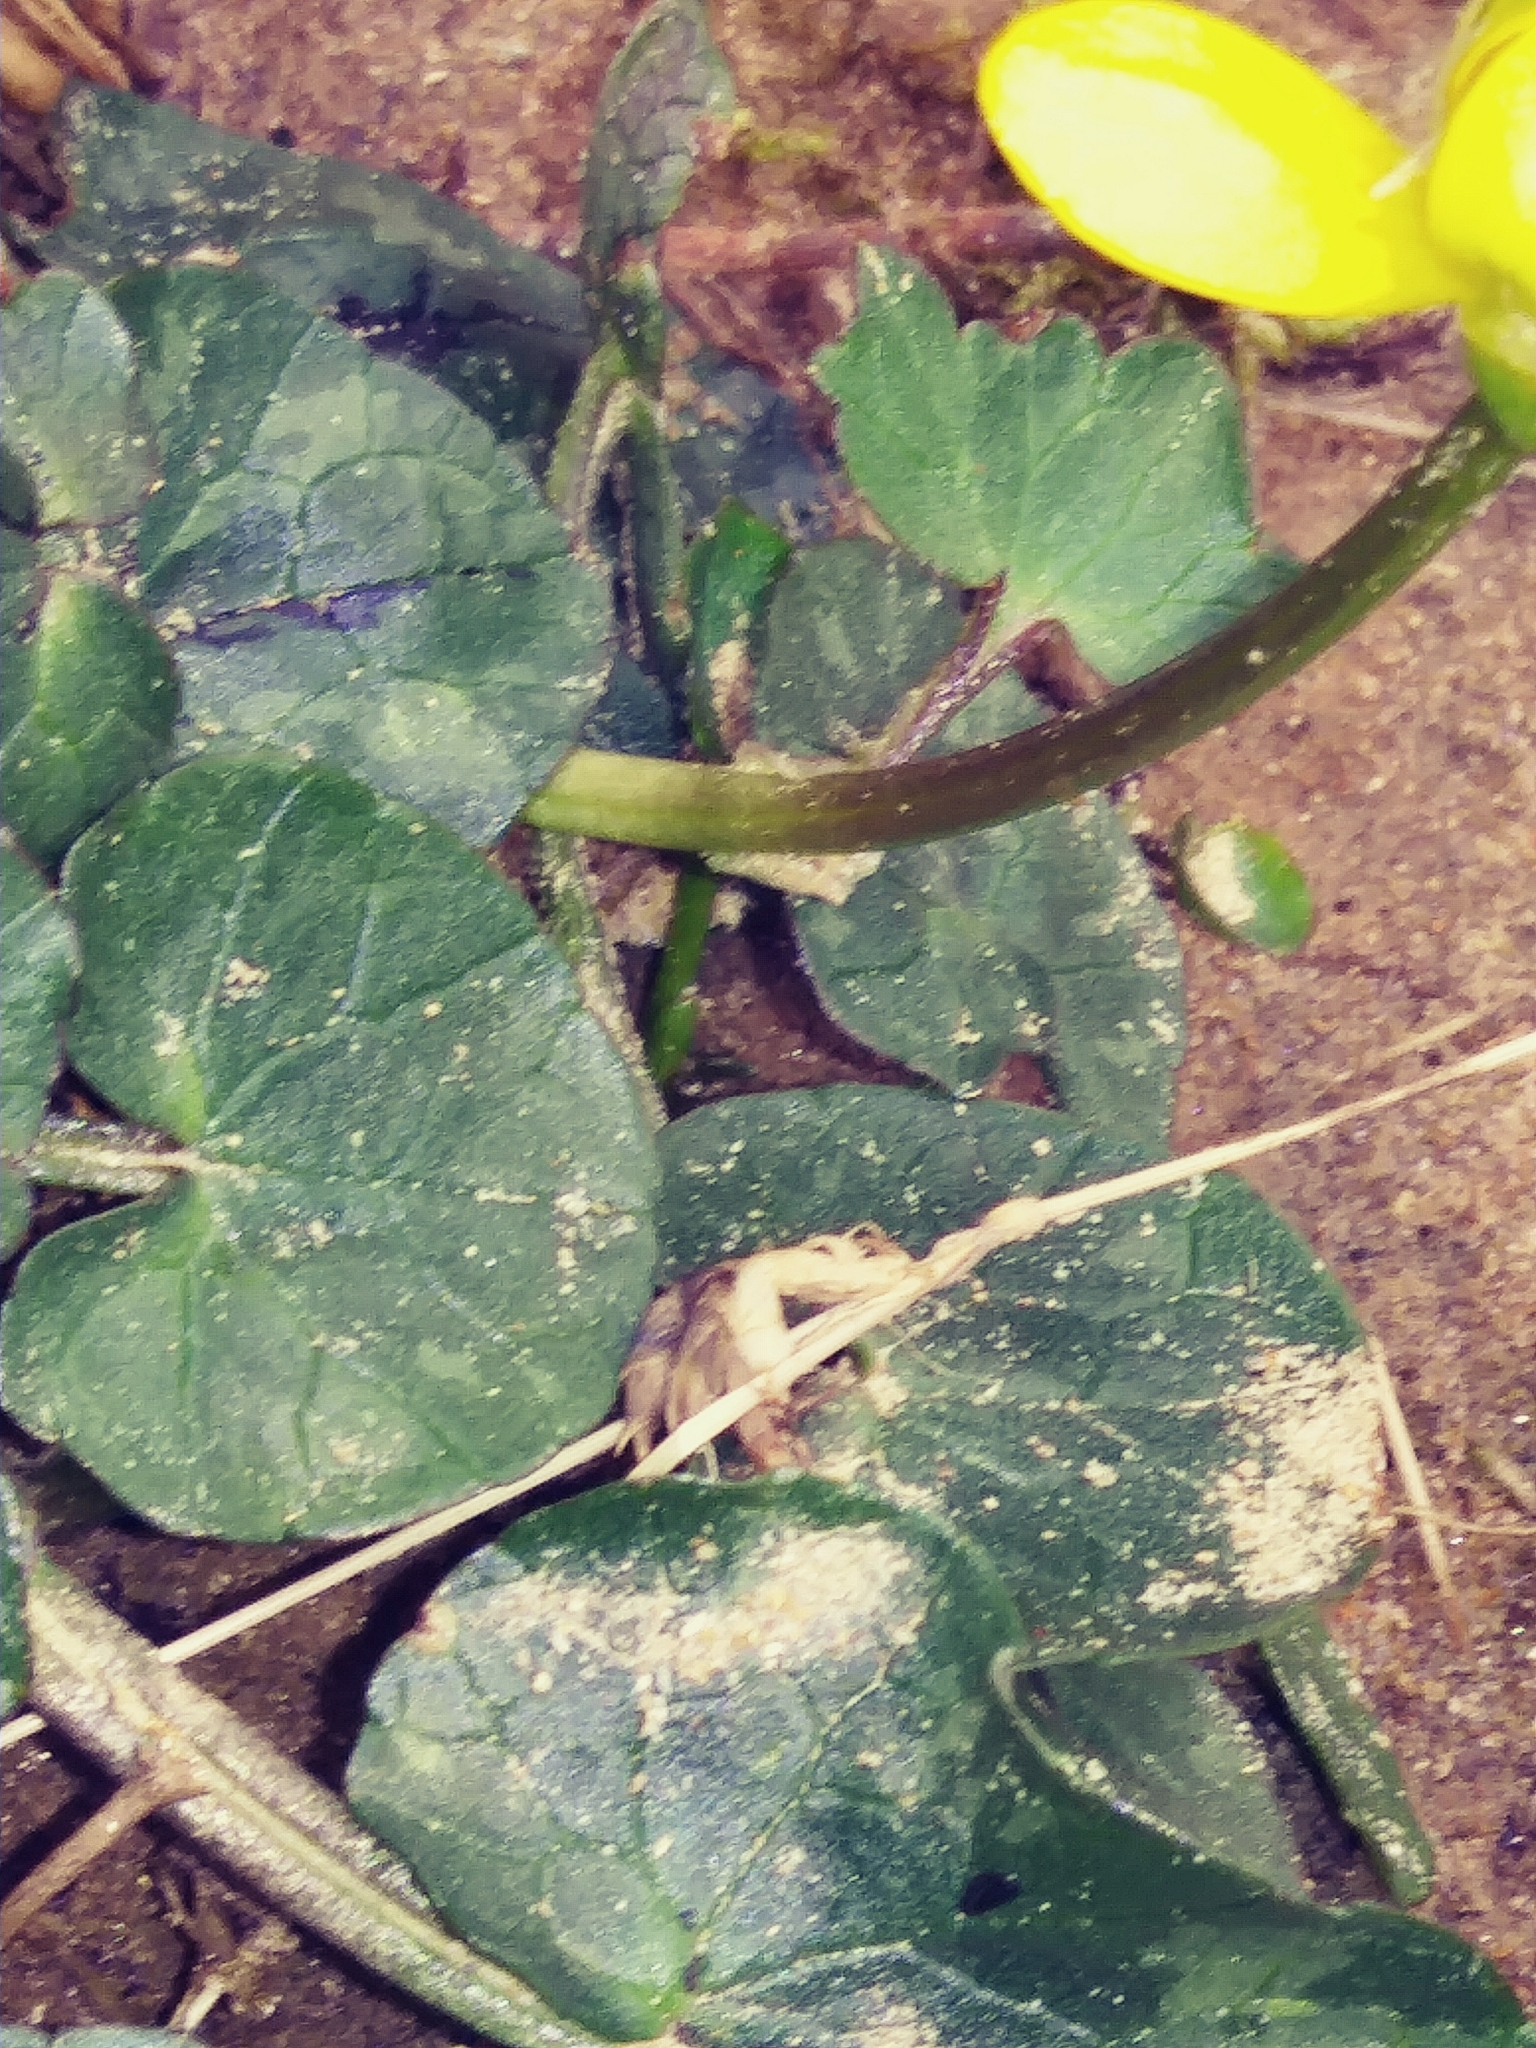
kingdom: Plantae
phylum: Tracheophyta
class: Magnoliopsida
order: Ranunculales
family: Ranunculaceae
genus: Ficaria
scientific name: Ficaria verna
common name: Lesser celandine
